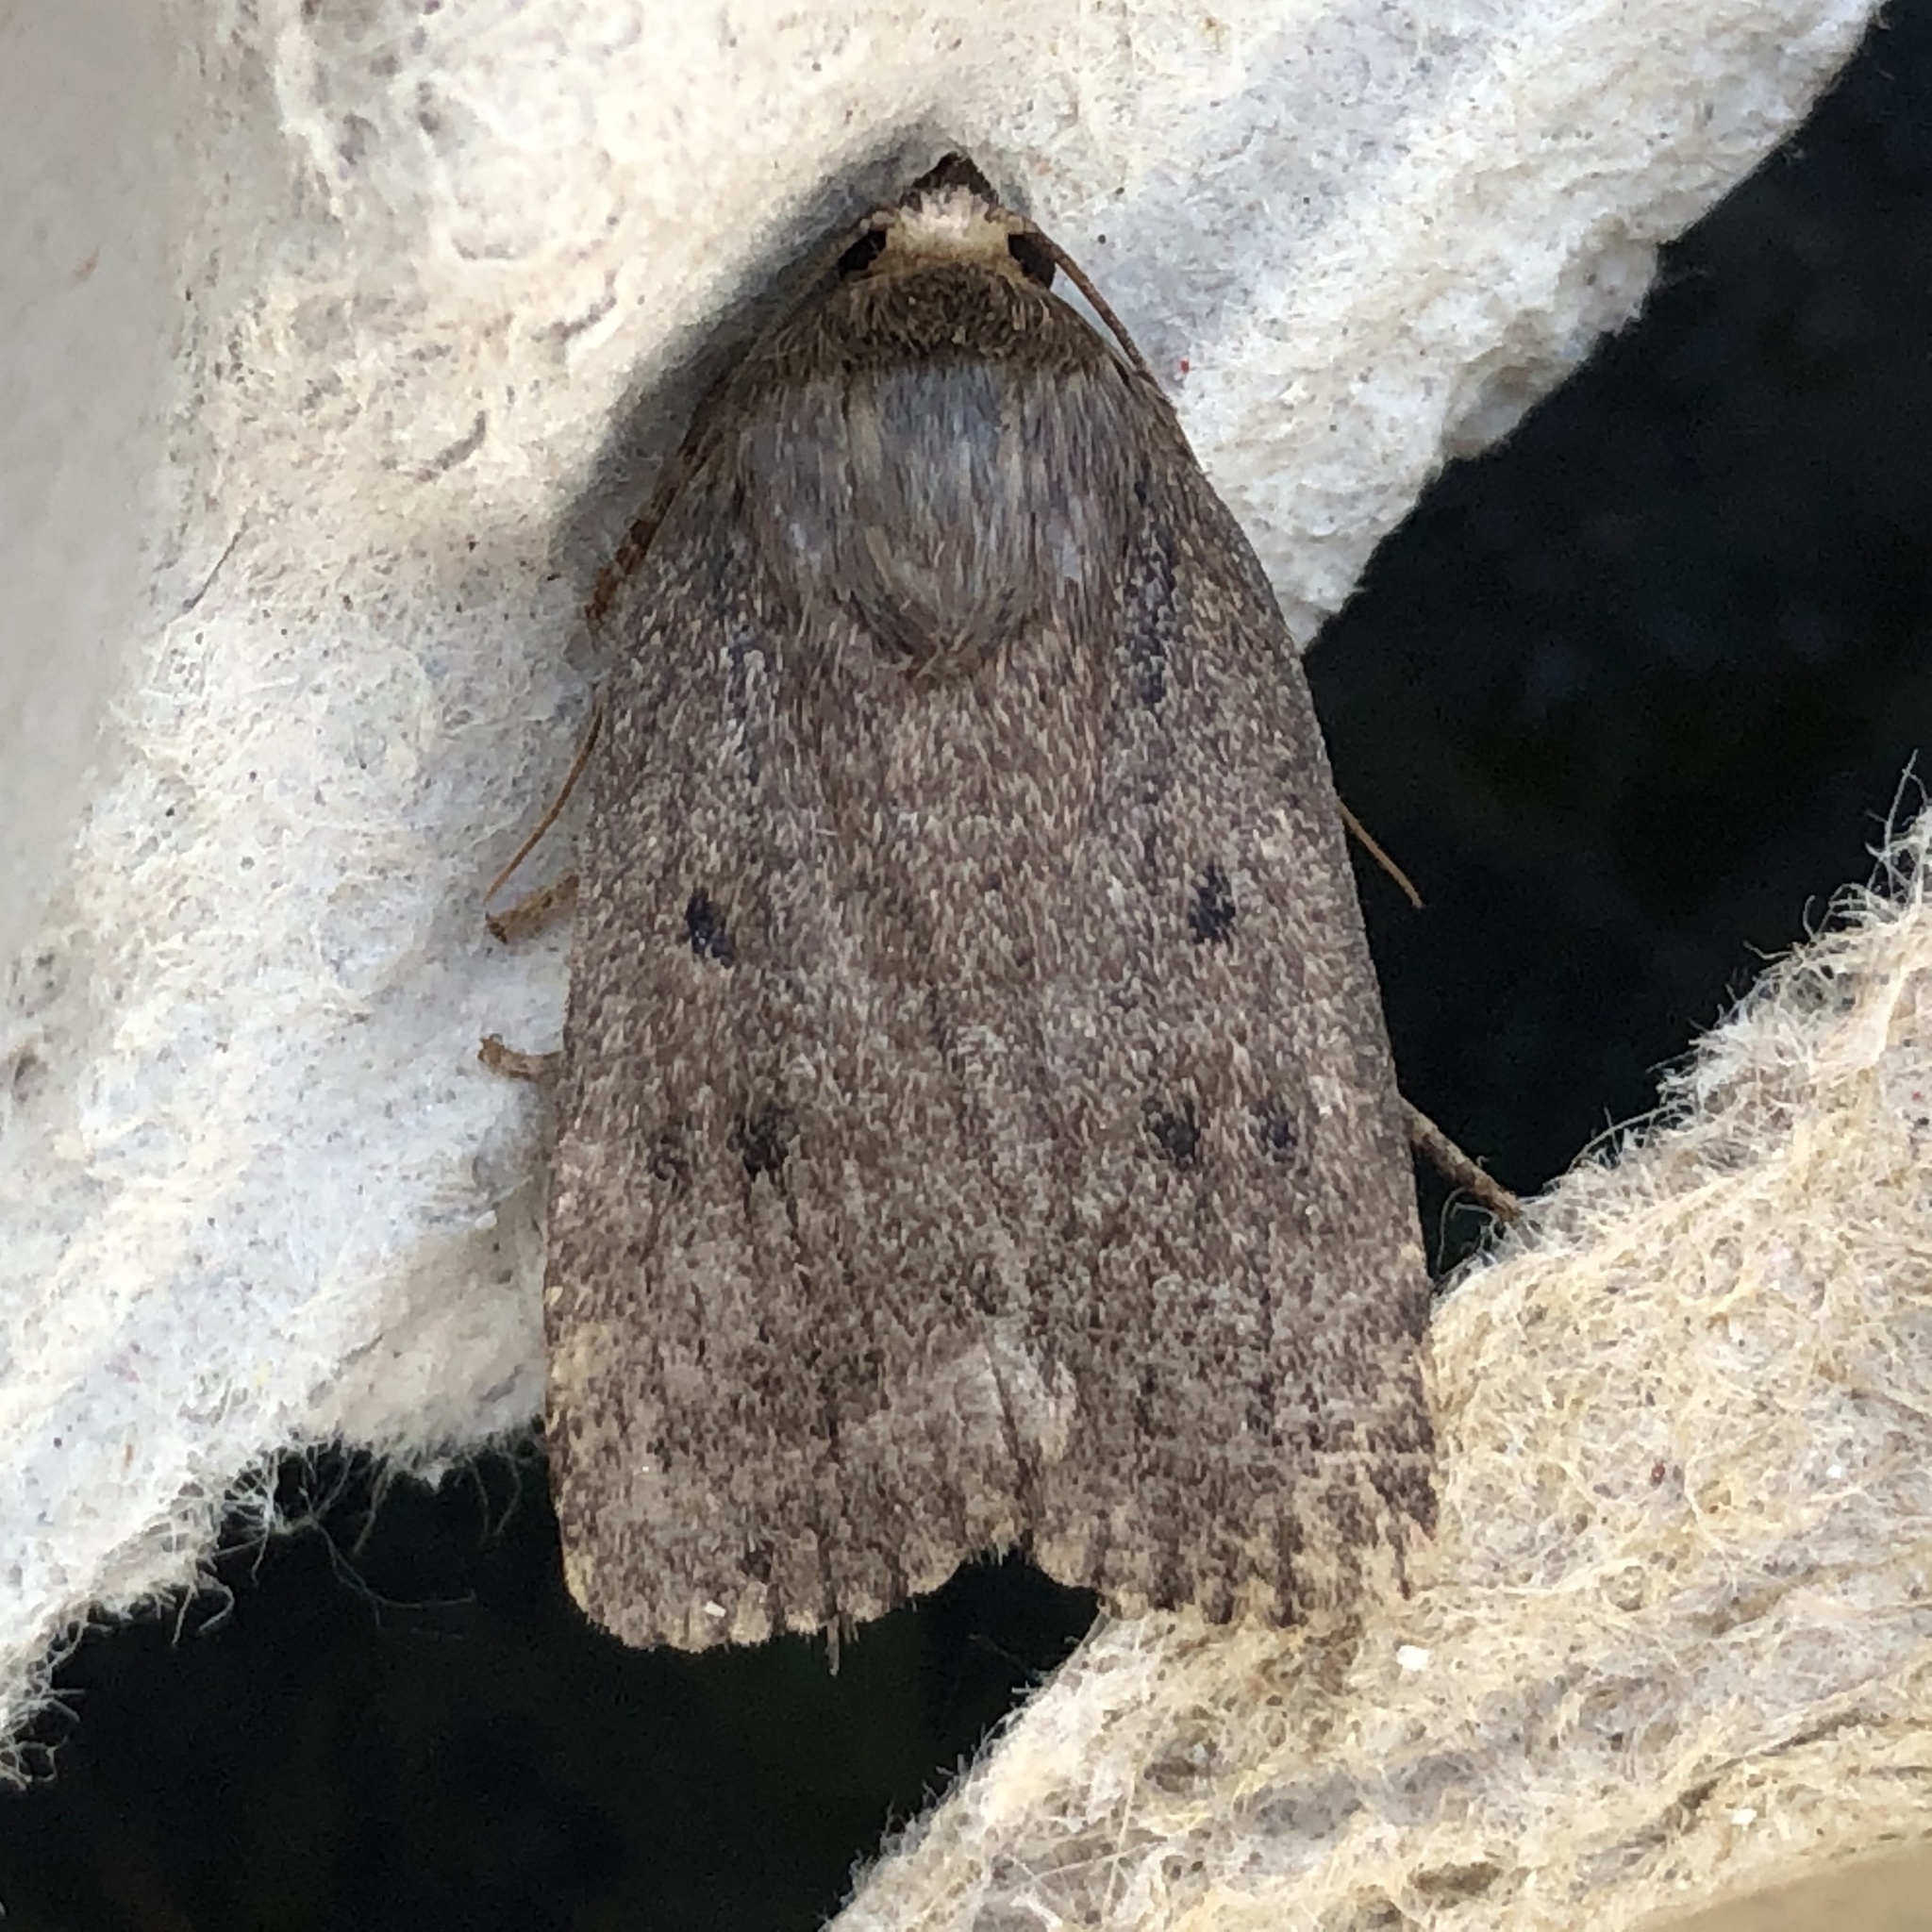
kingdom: Animalia
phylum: Arthropoda
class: Insecta
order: Lepidoptera
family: Noctuidae
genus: Amphipyra
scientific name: Amphipyra tragopoginis
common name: Mouse moth
